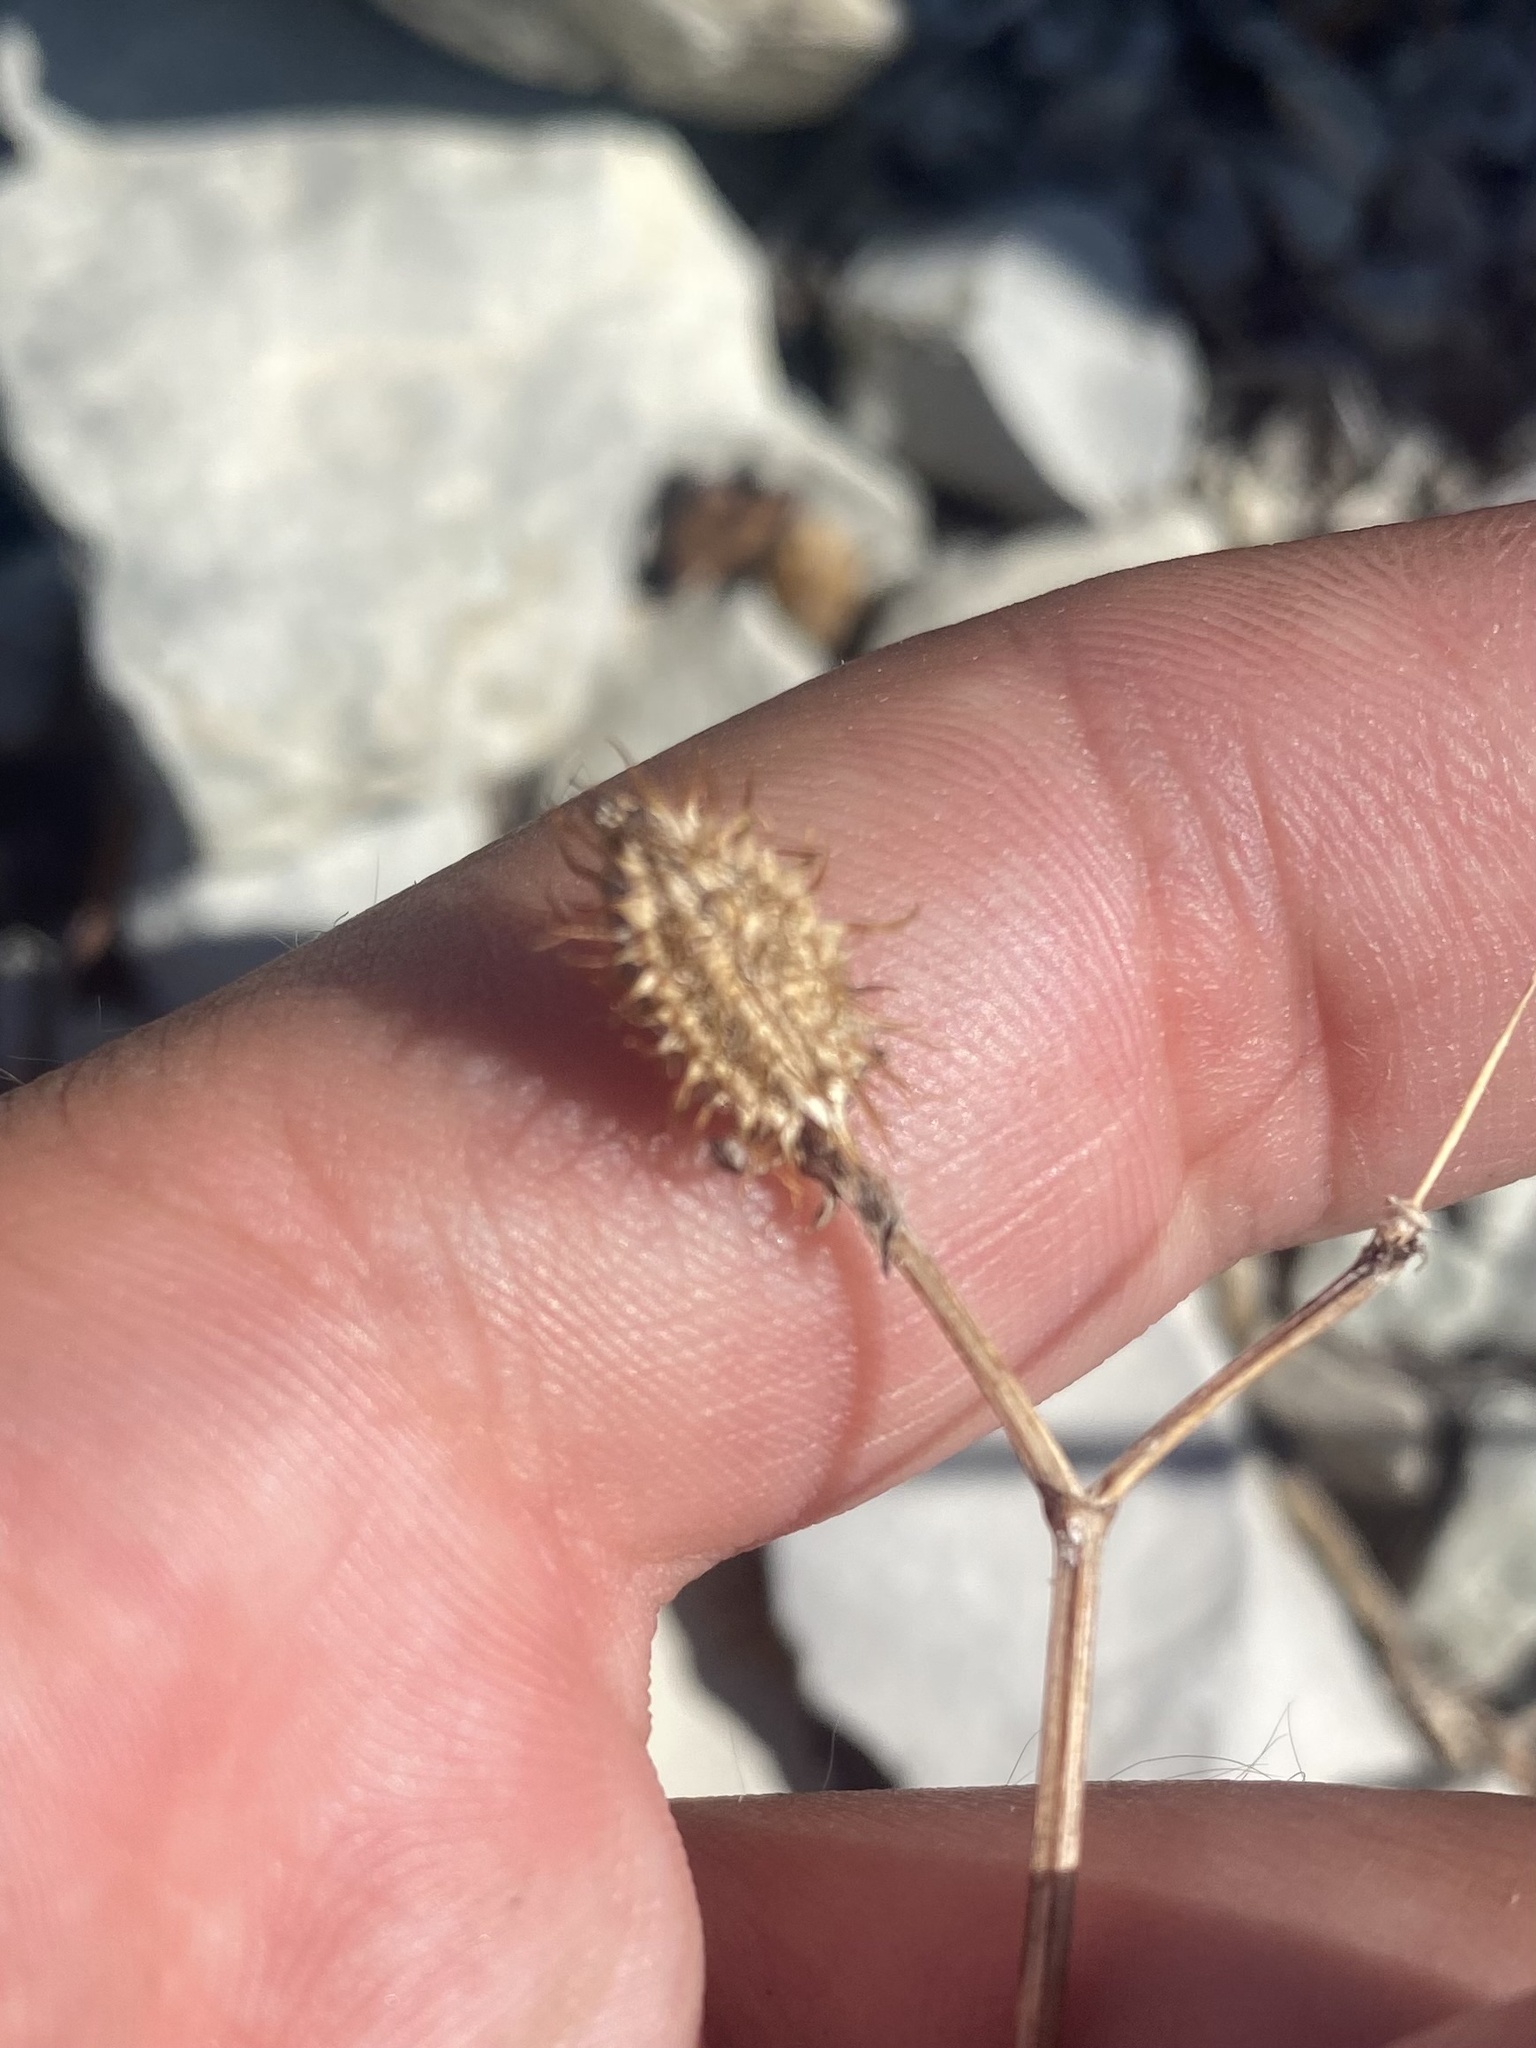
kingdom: Plantae
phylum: Tracheophyta
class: Magnoliopsida
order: Apiales
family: Apiaceae
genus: Orlaya
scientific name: Orlaya daucoides
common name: Flat-fruit orlaya
